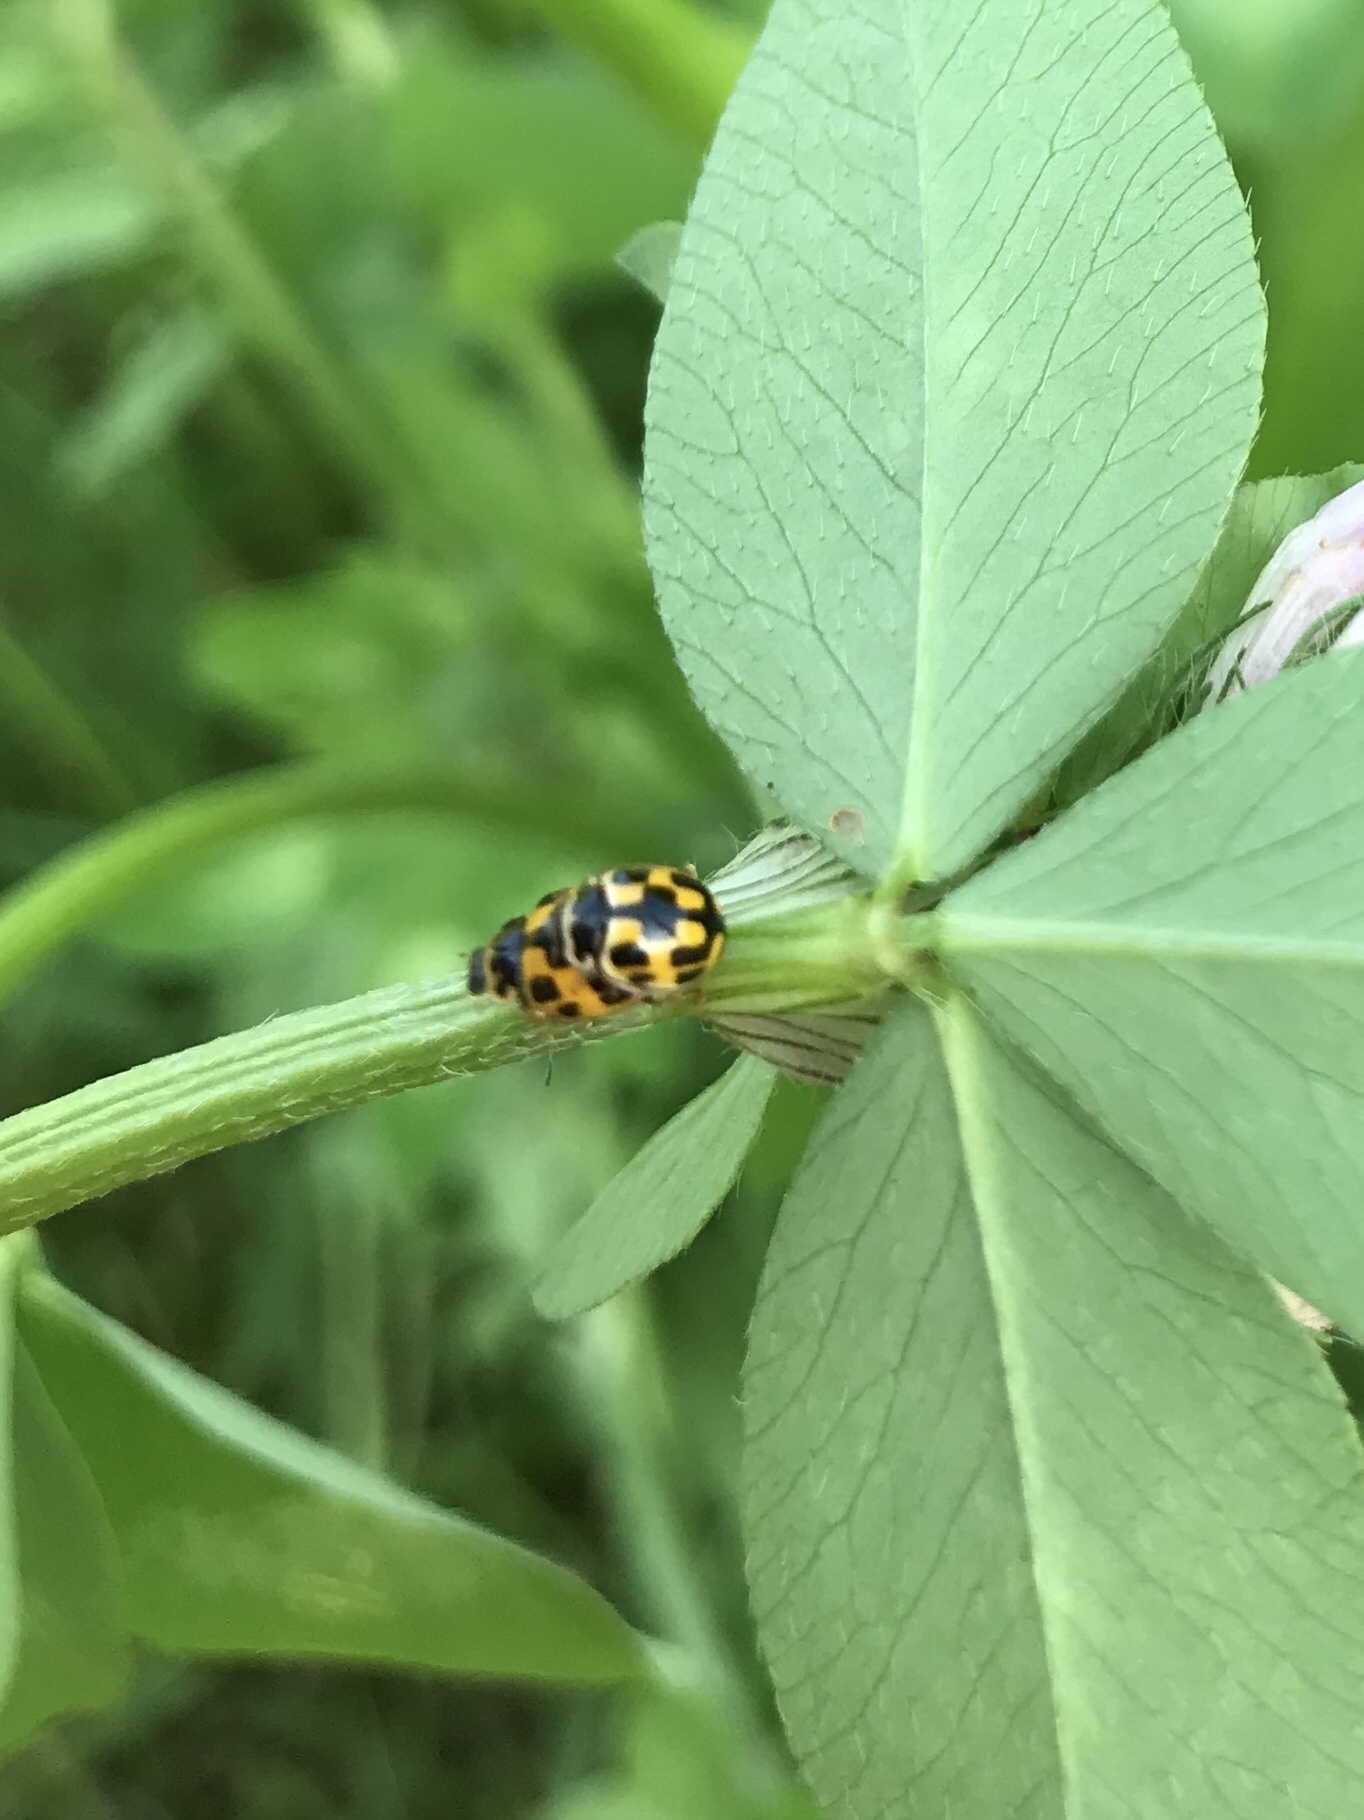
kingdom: Animalia
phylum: Arthropoda
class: Insecta
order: Coleoptera
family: Coccinellidae
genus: Propylaea
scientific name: Propylaea quatuordecimpunctata
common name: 14-spotted ladybird beetle
